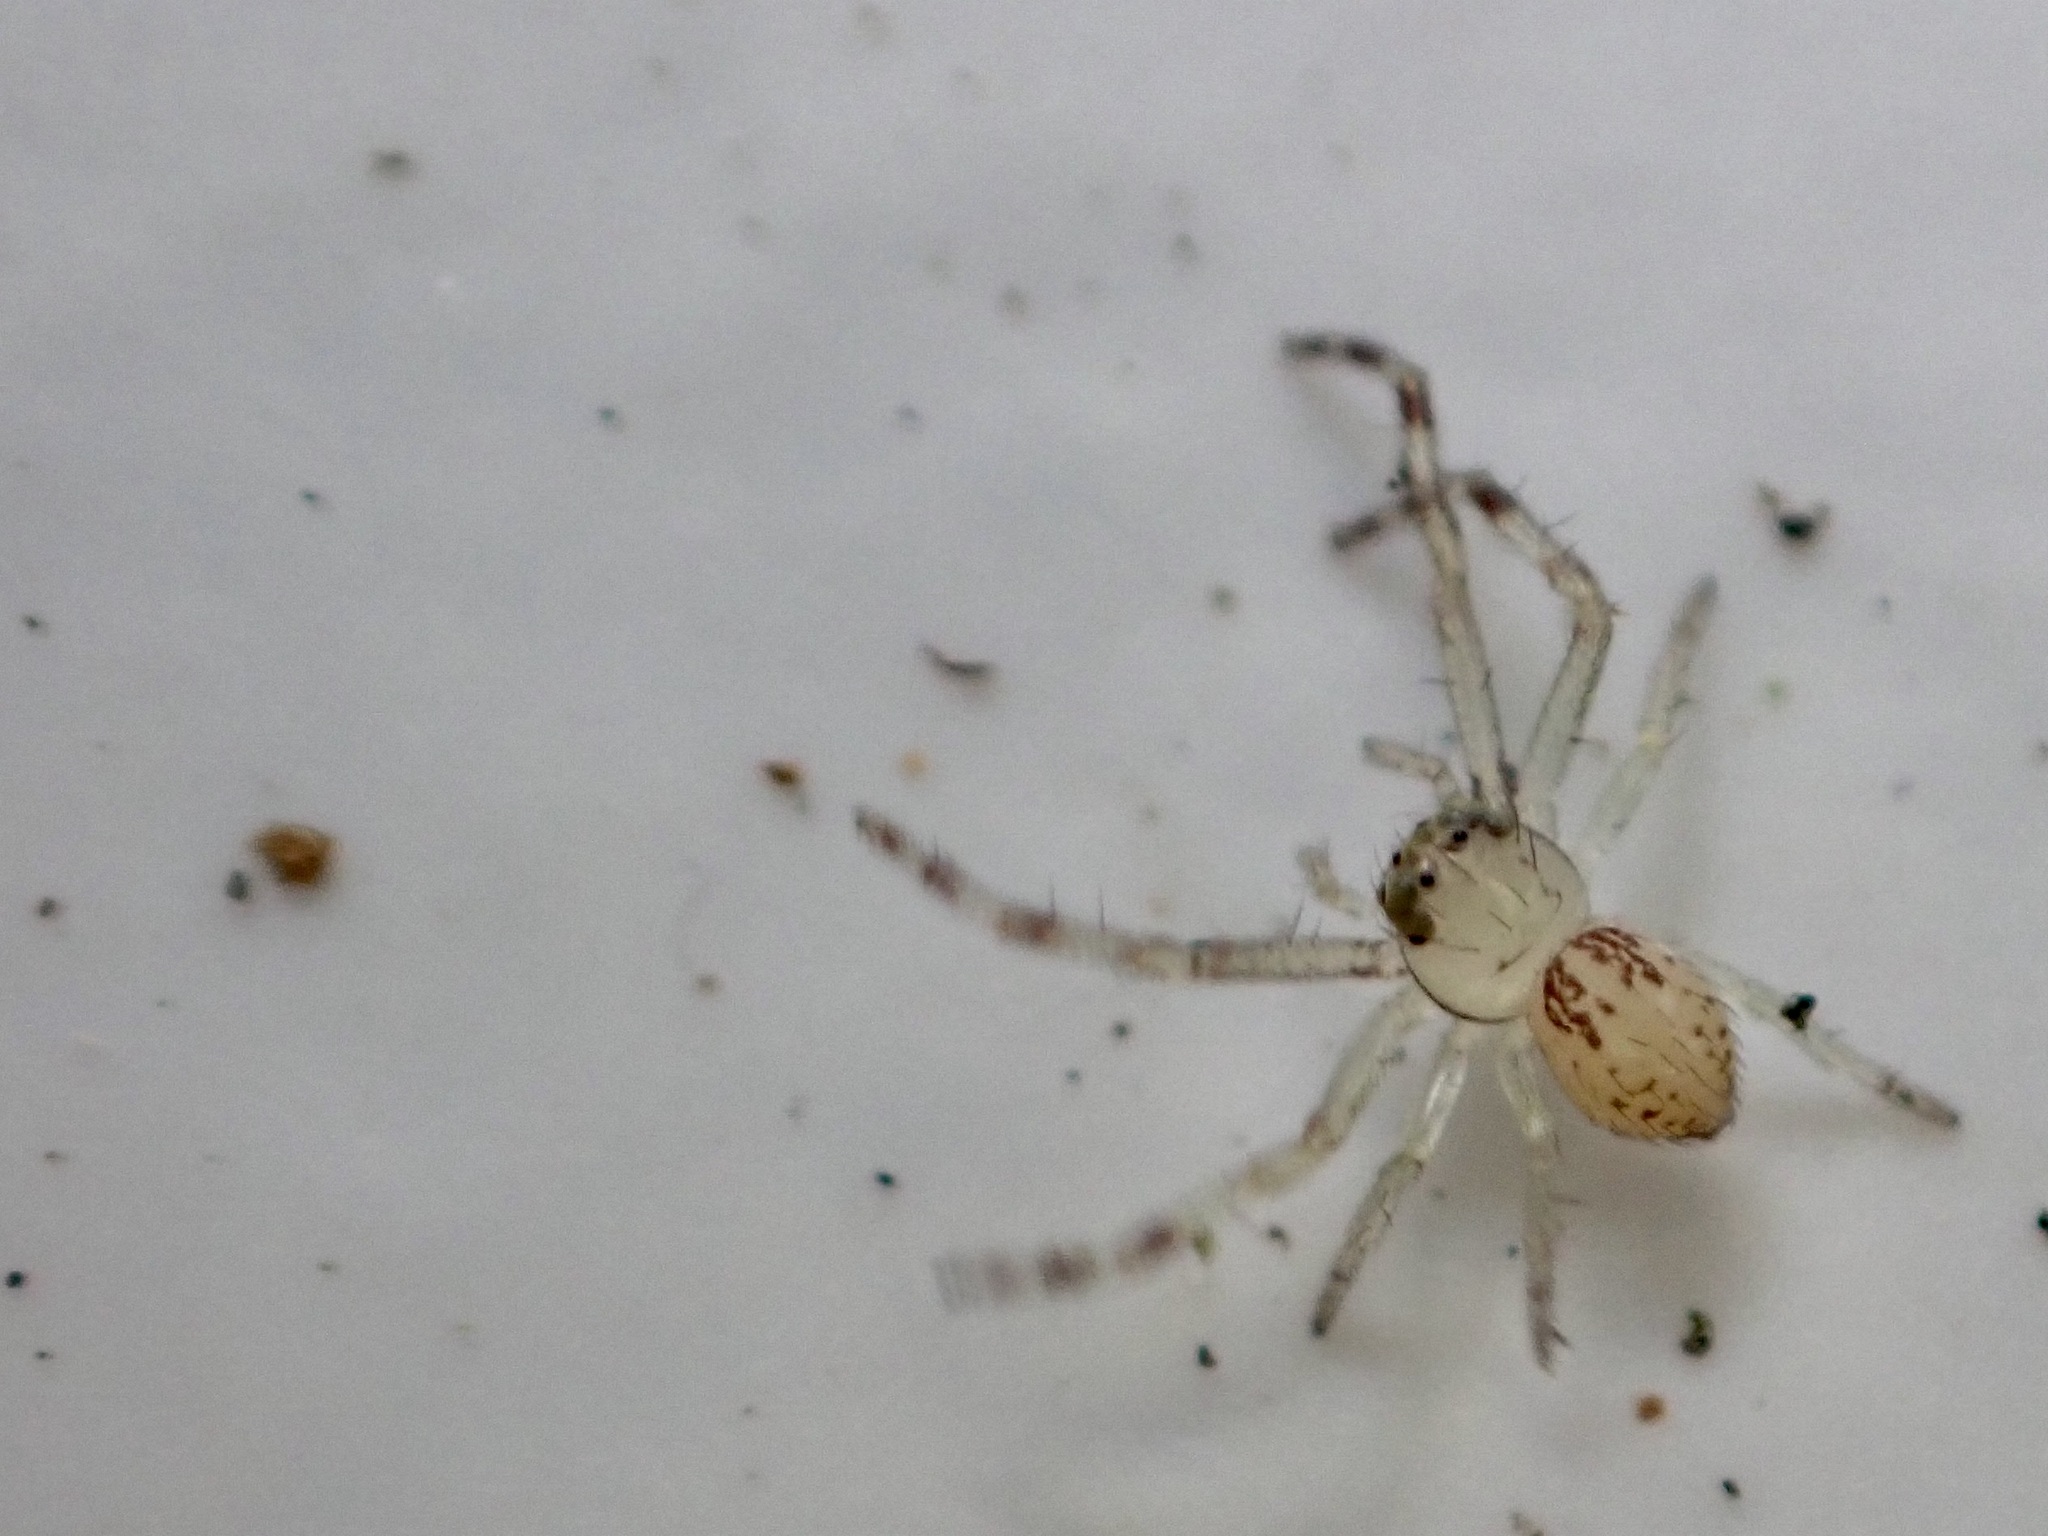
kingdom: Animalia
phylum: Arthropoda
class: Arachnida
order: Araneae
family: Thomisidae
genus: Diaea
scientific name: Diaea ambara
